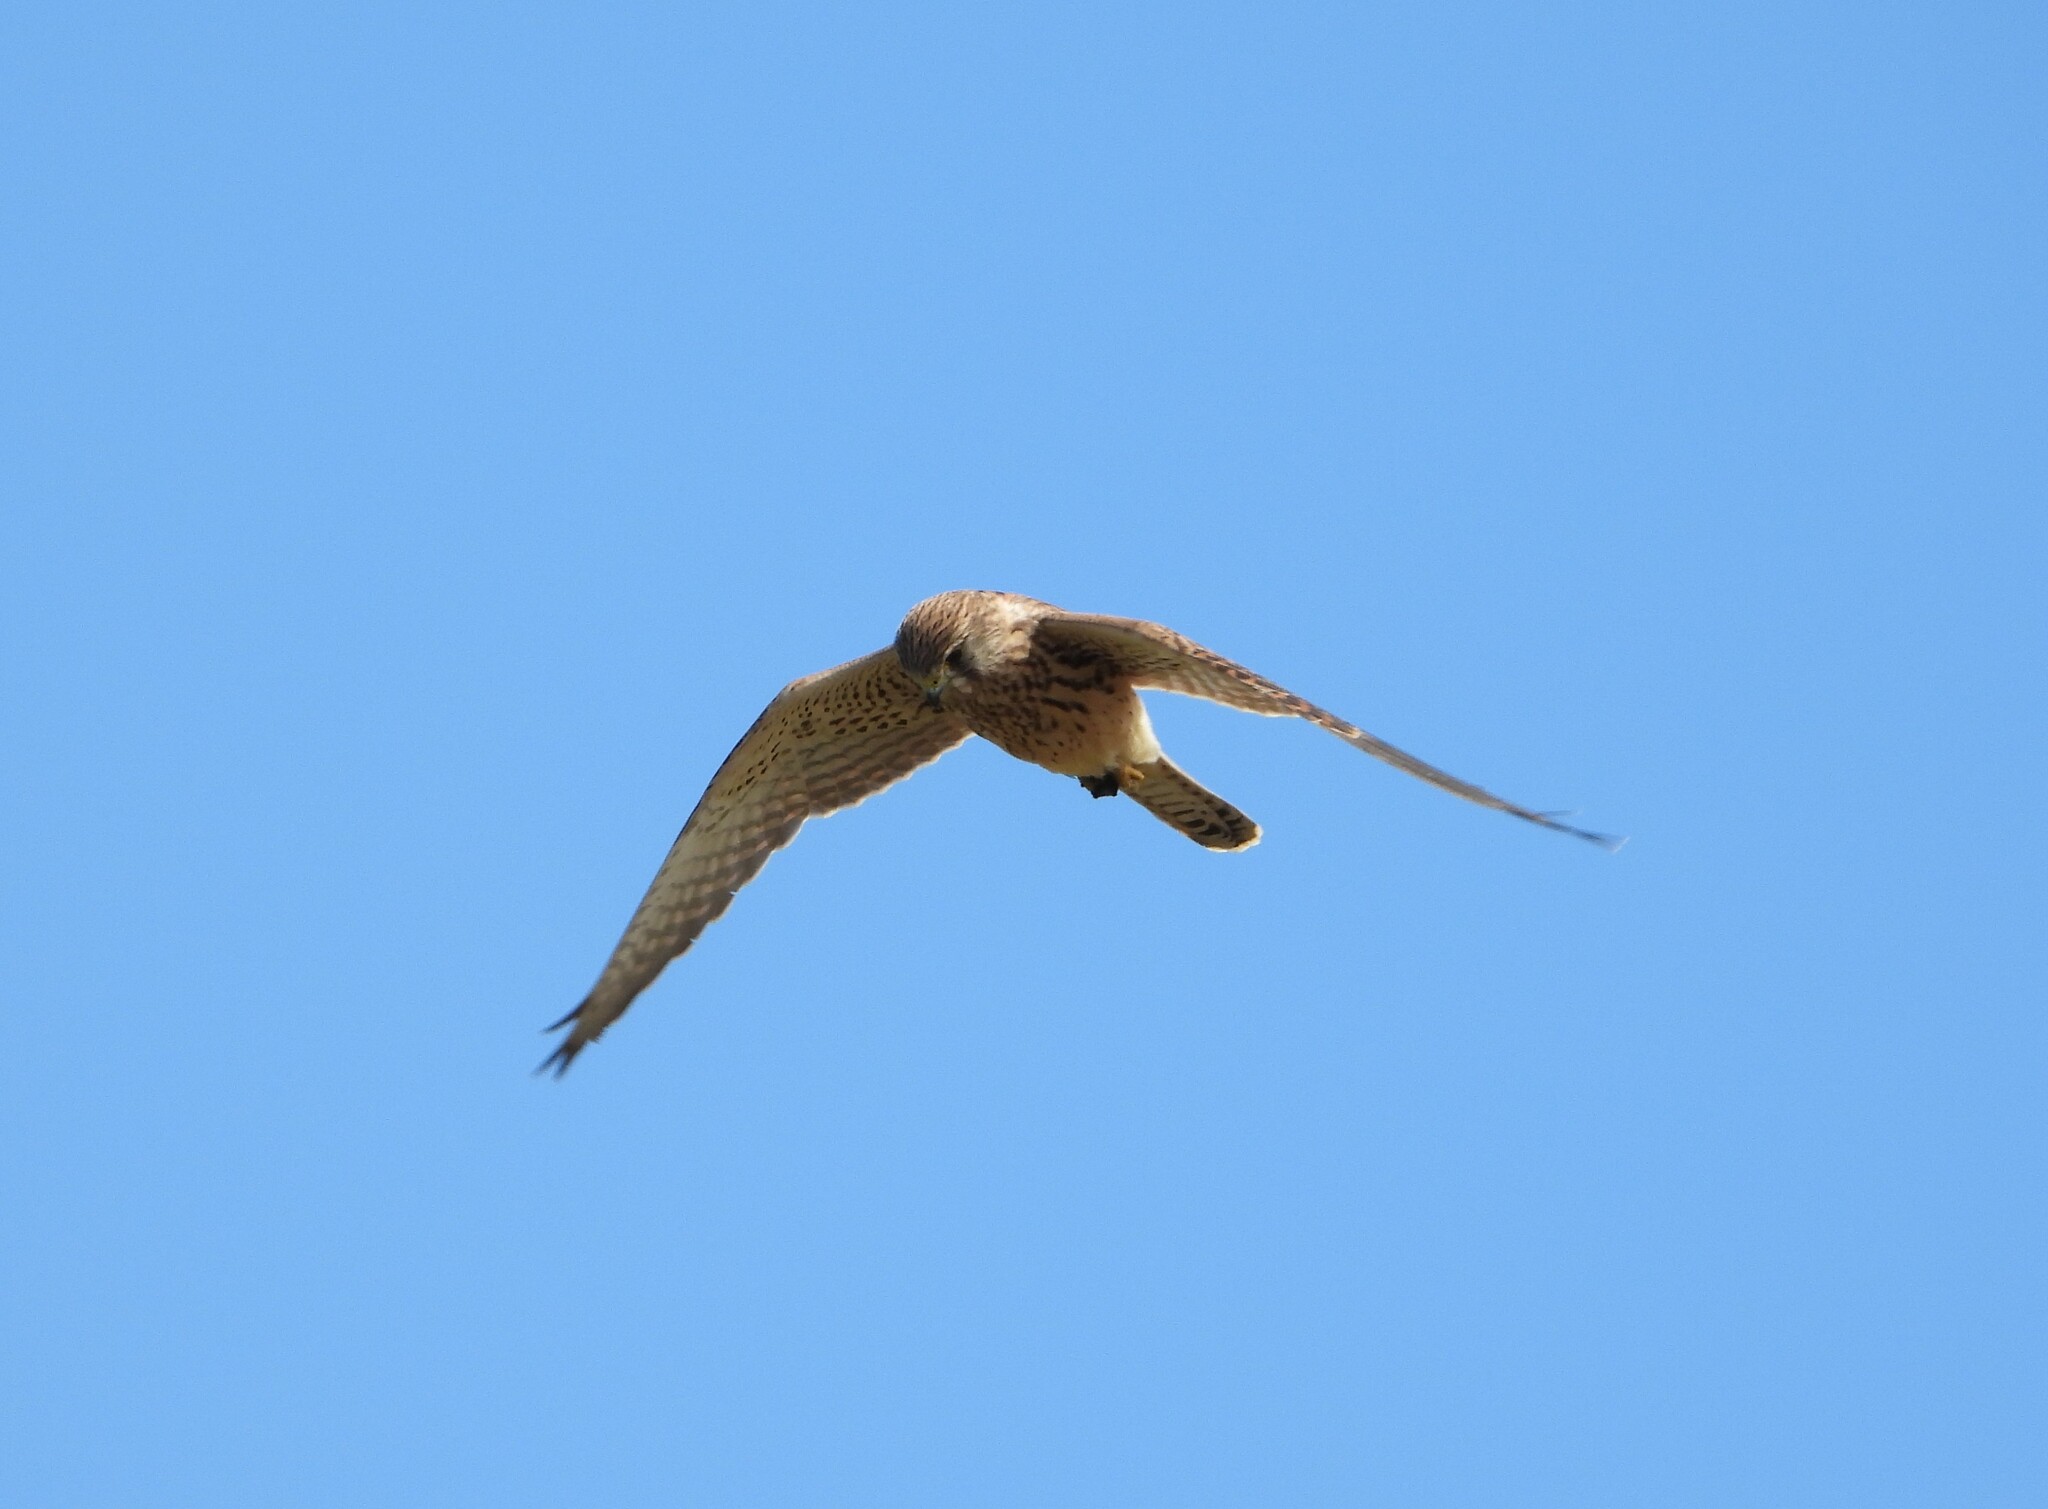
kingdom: Animalia
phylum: Chordata
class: Aves
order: Falconiformes
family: Falconidae
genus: Falco
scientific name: Falco tinnunculus
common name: Common kestrel
